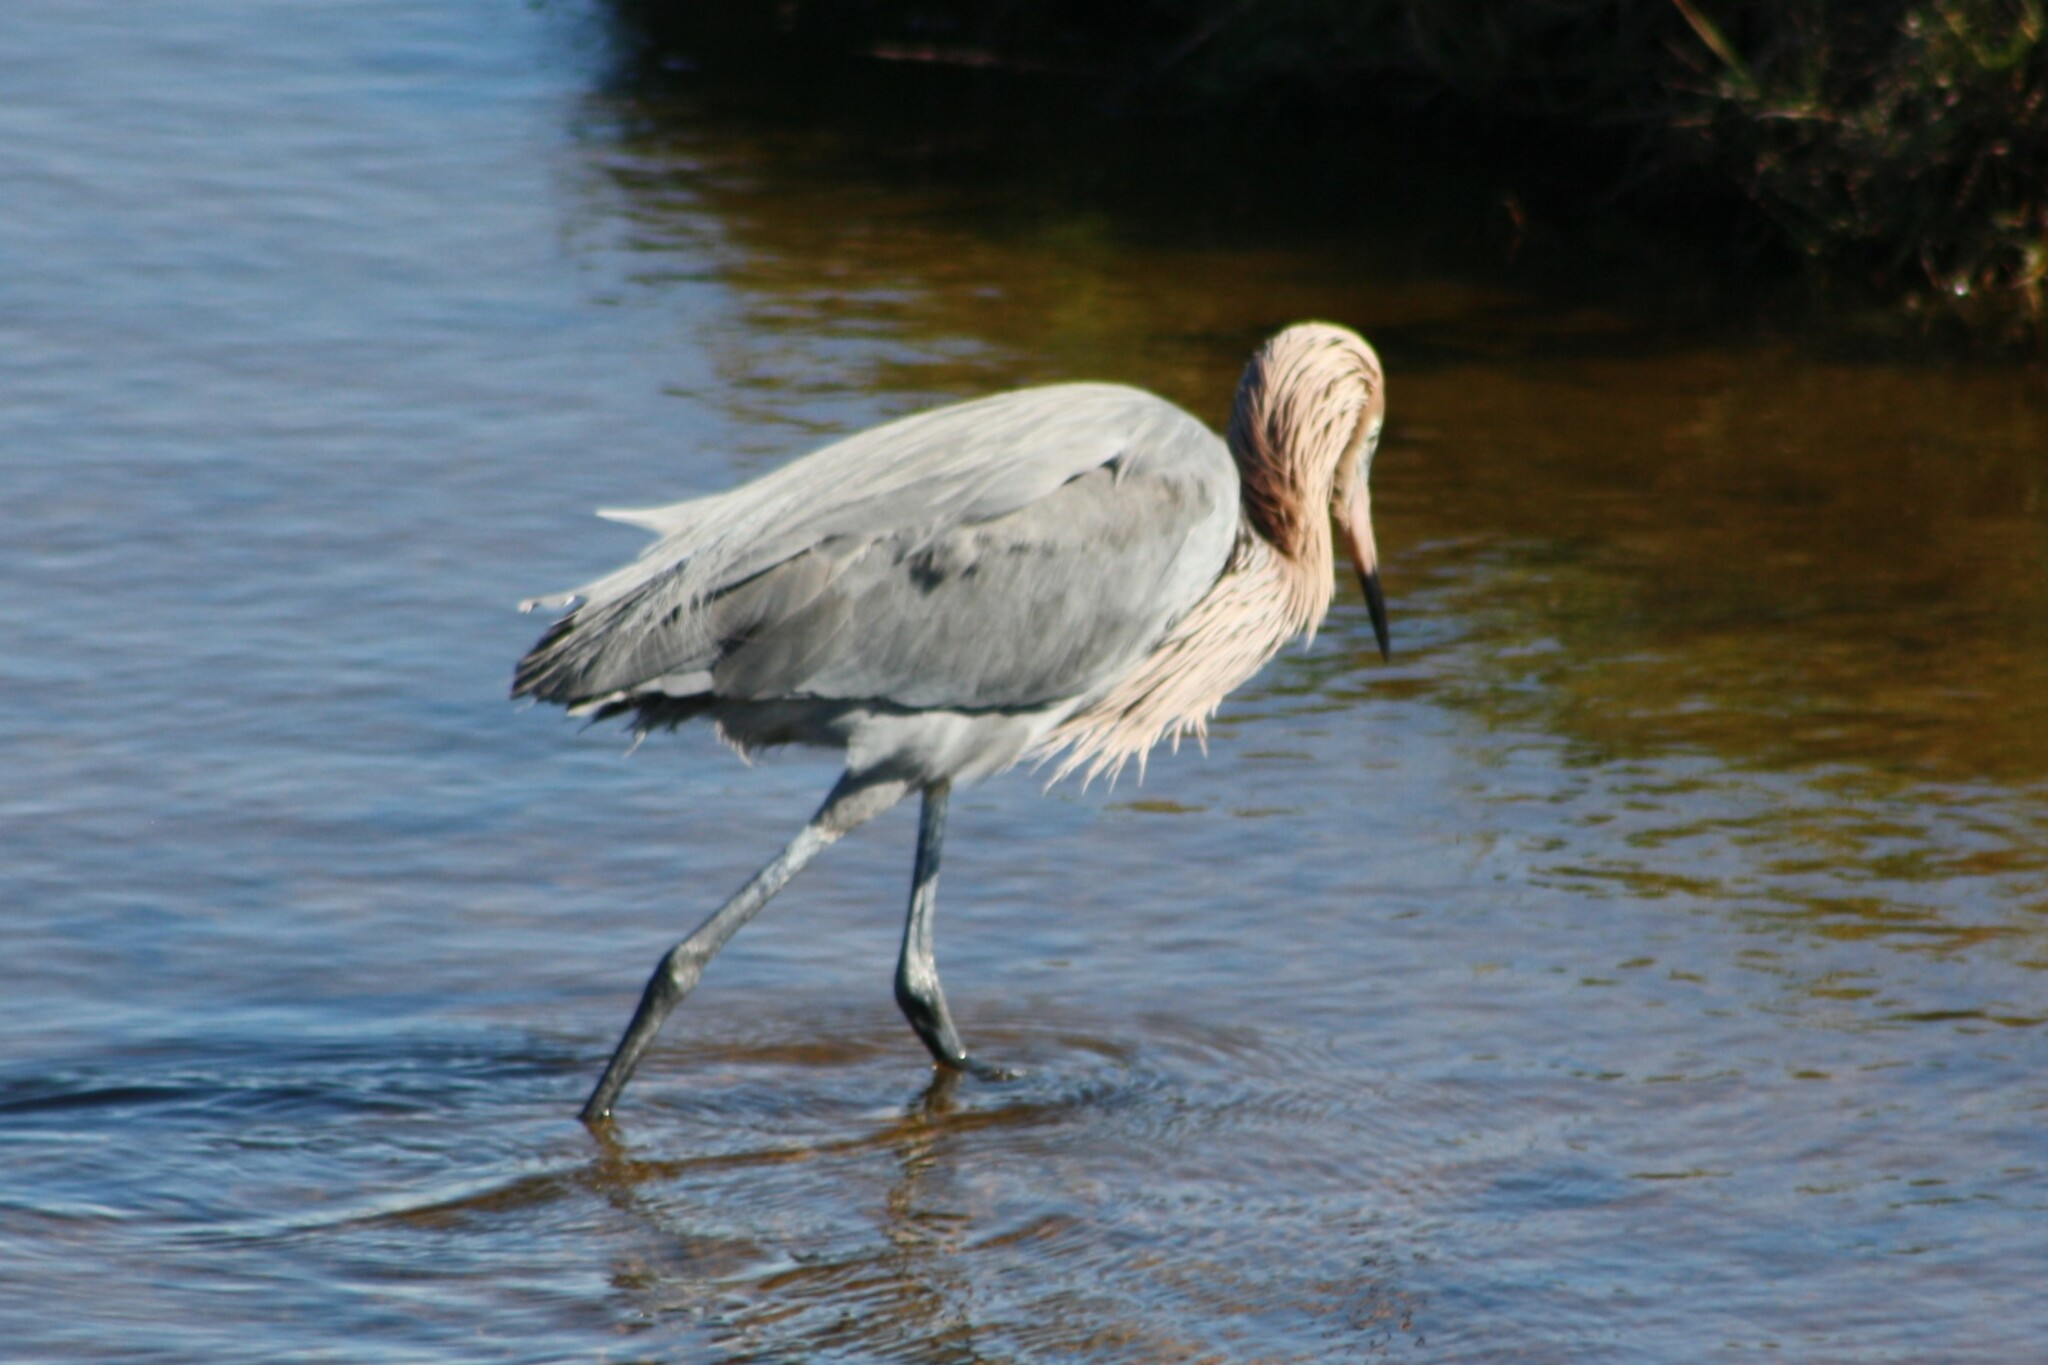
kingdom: Animalia
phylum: Chordata
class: Aves
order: Pelecaniformes
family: Ardeidae
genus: Egretta
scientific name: Egretta rufescens
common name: Reddish egret
